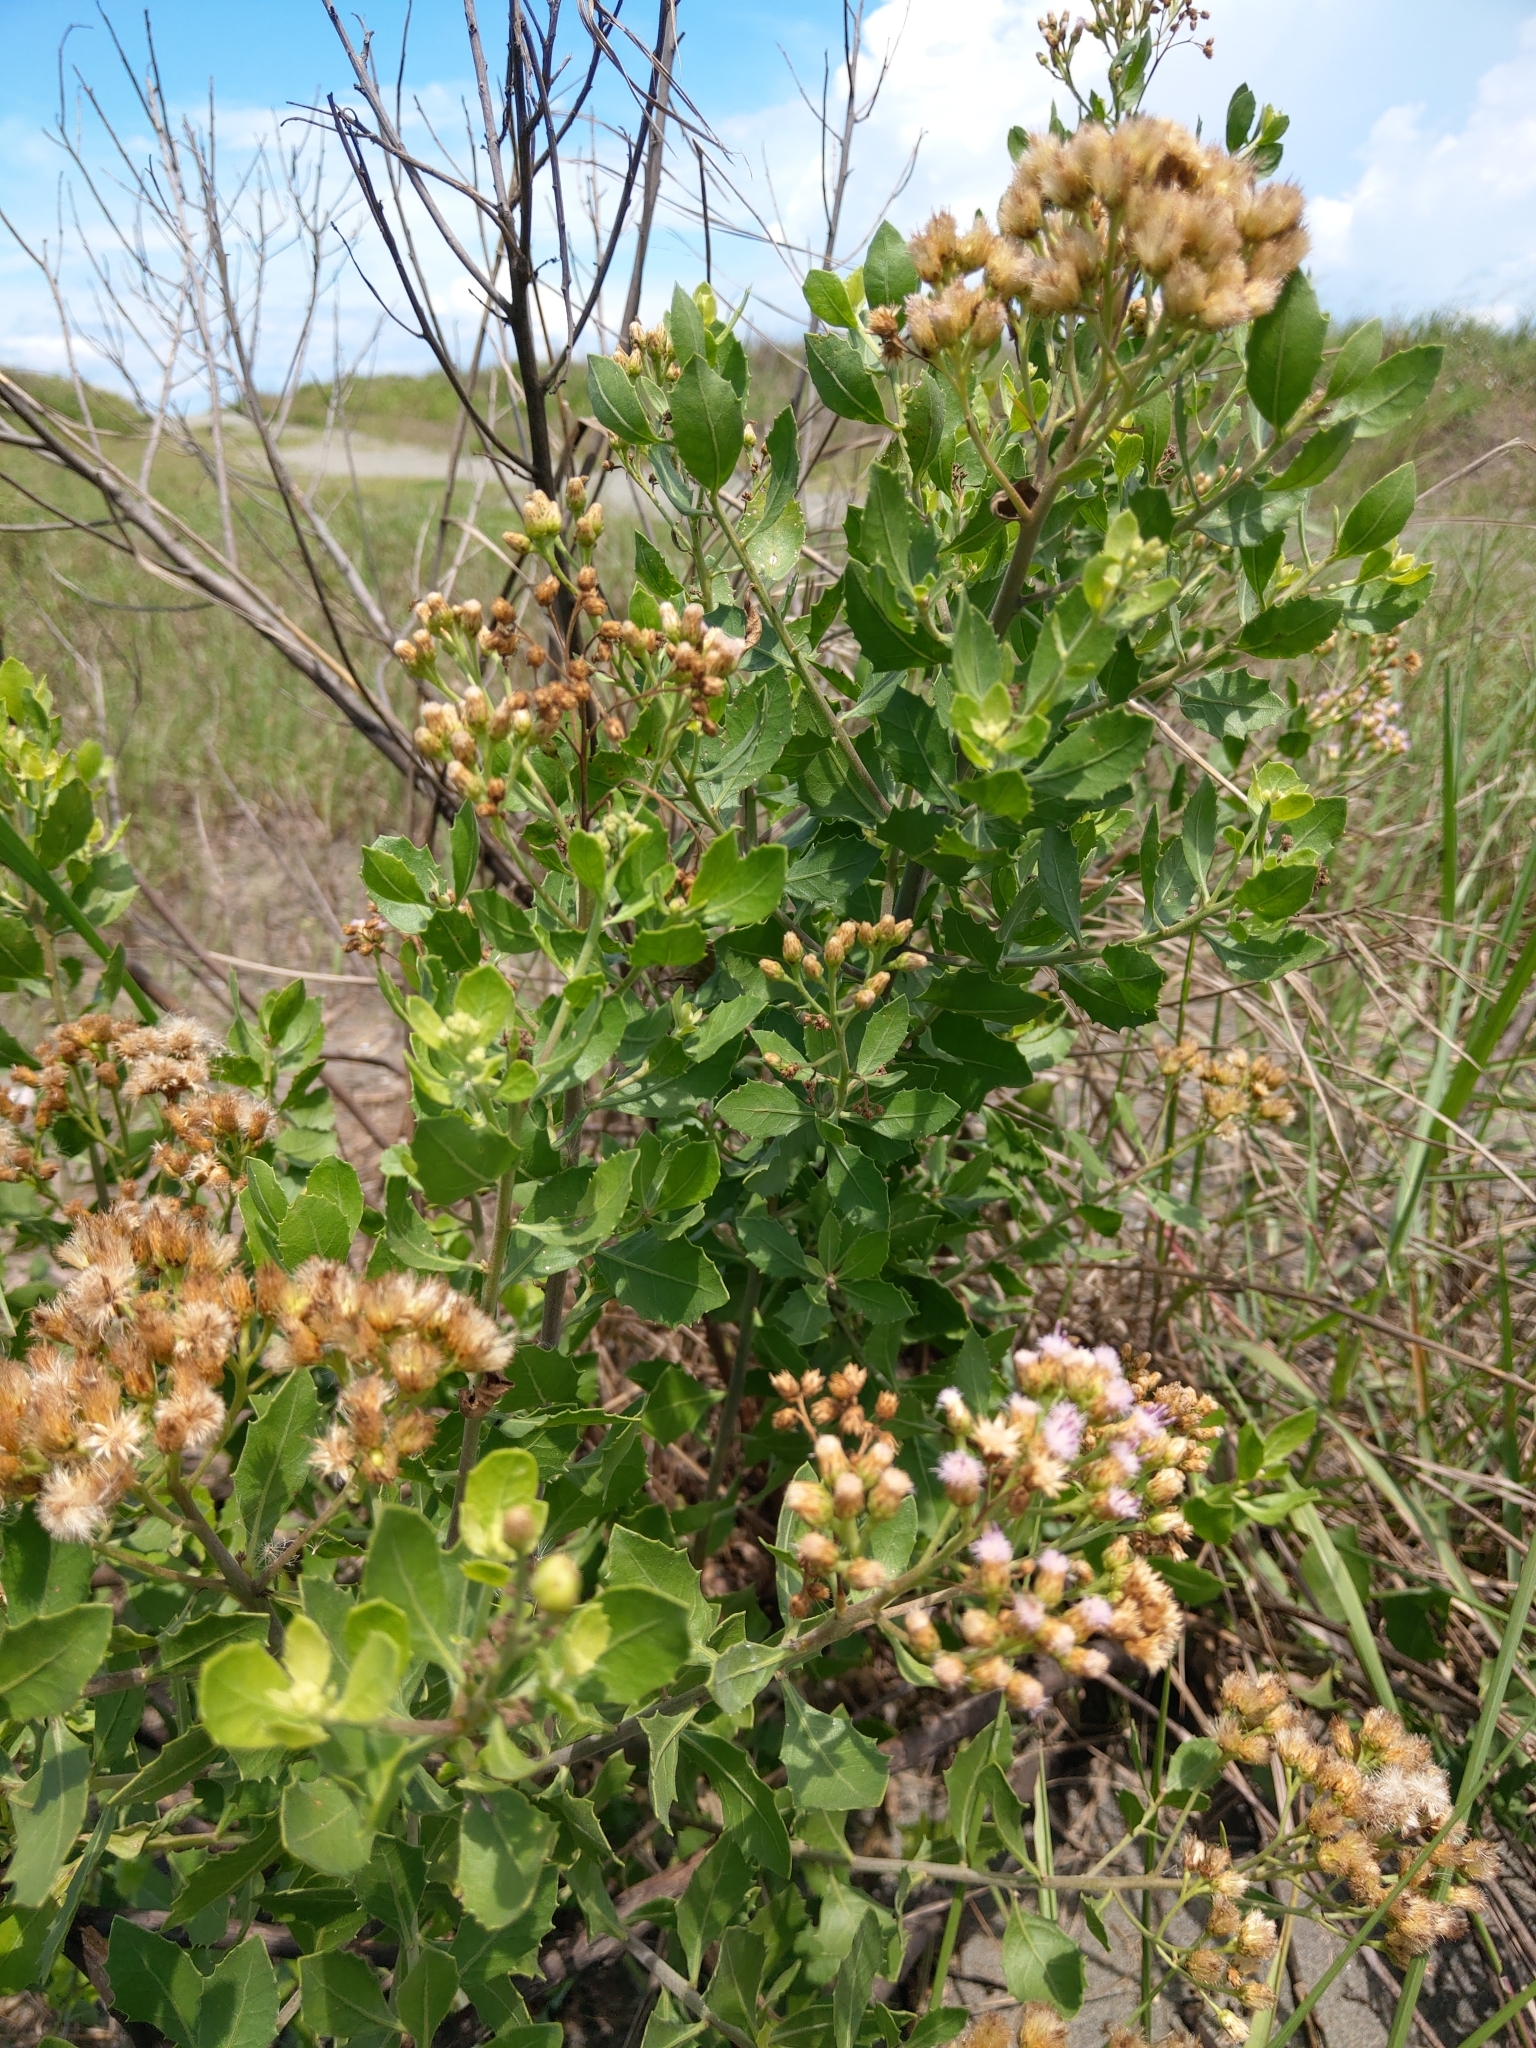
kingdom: Plantae
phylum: Tracheophyta
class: Magnoliopsida
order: Asterales
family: Asteraceae
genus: Pluchea
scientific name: Pluchea indica
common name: Indian fleabane
